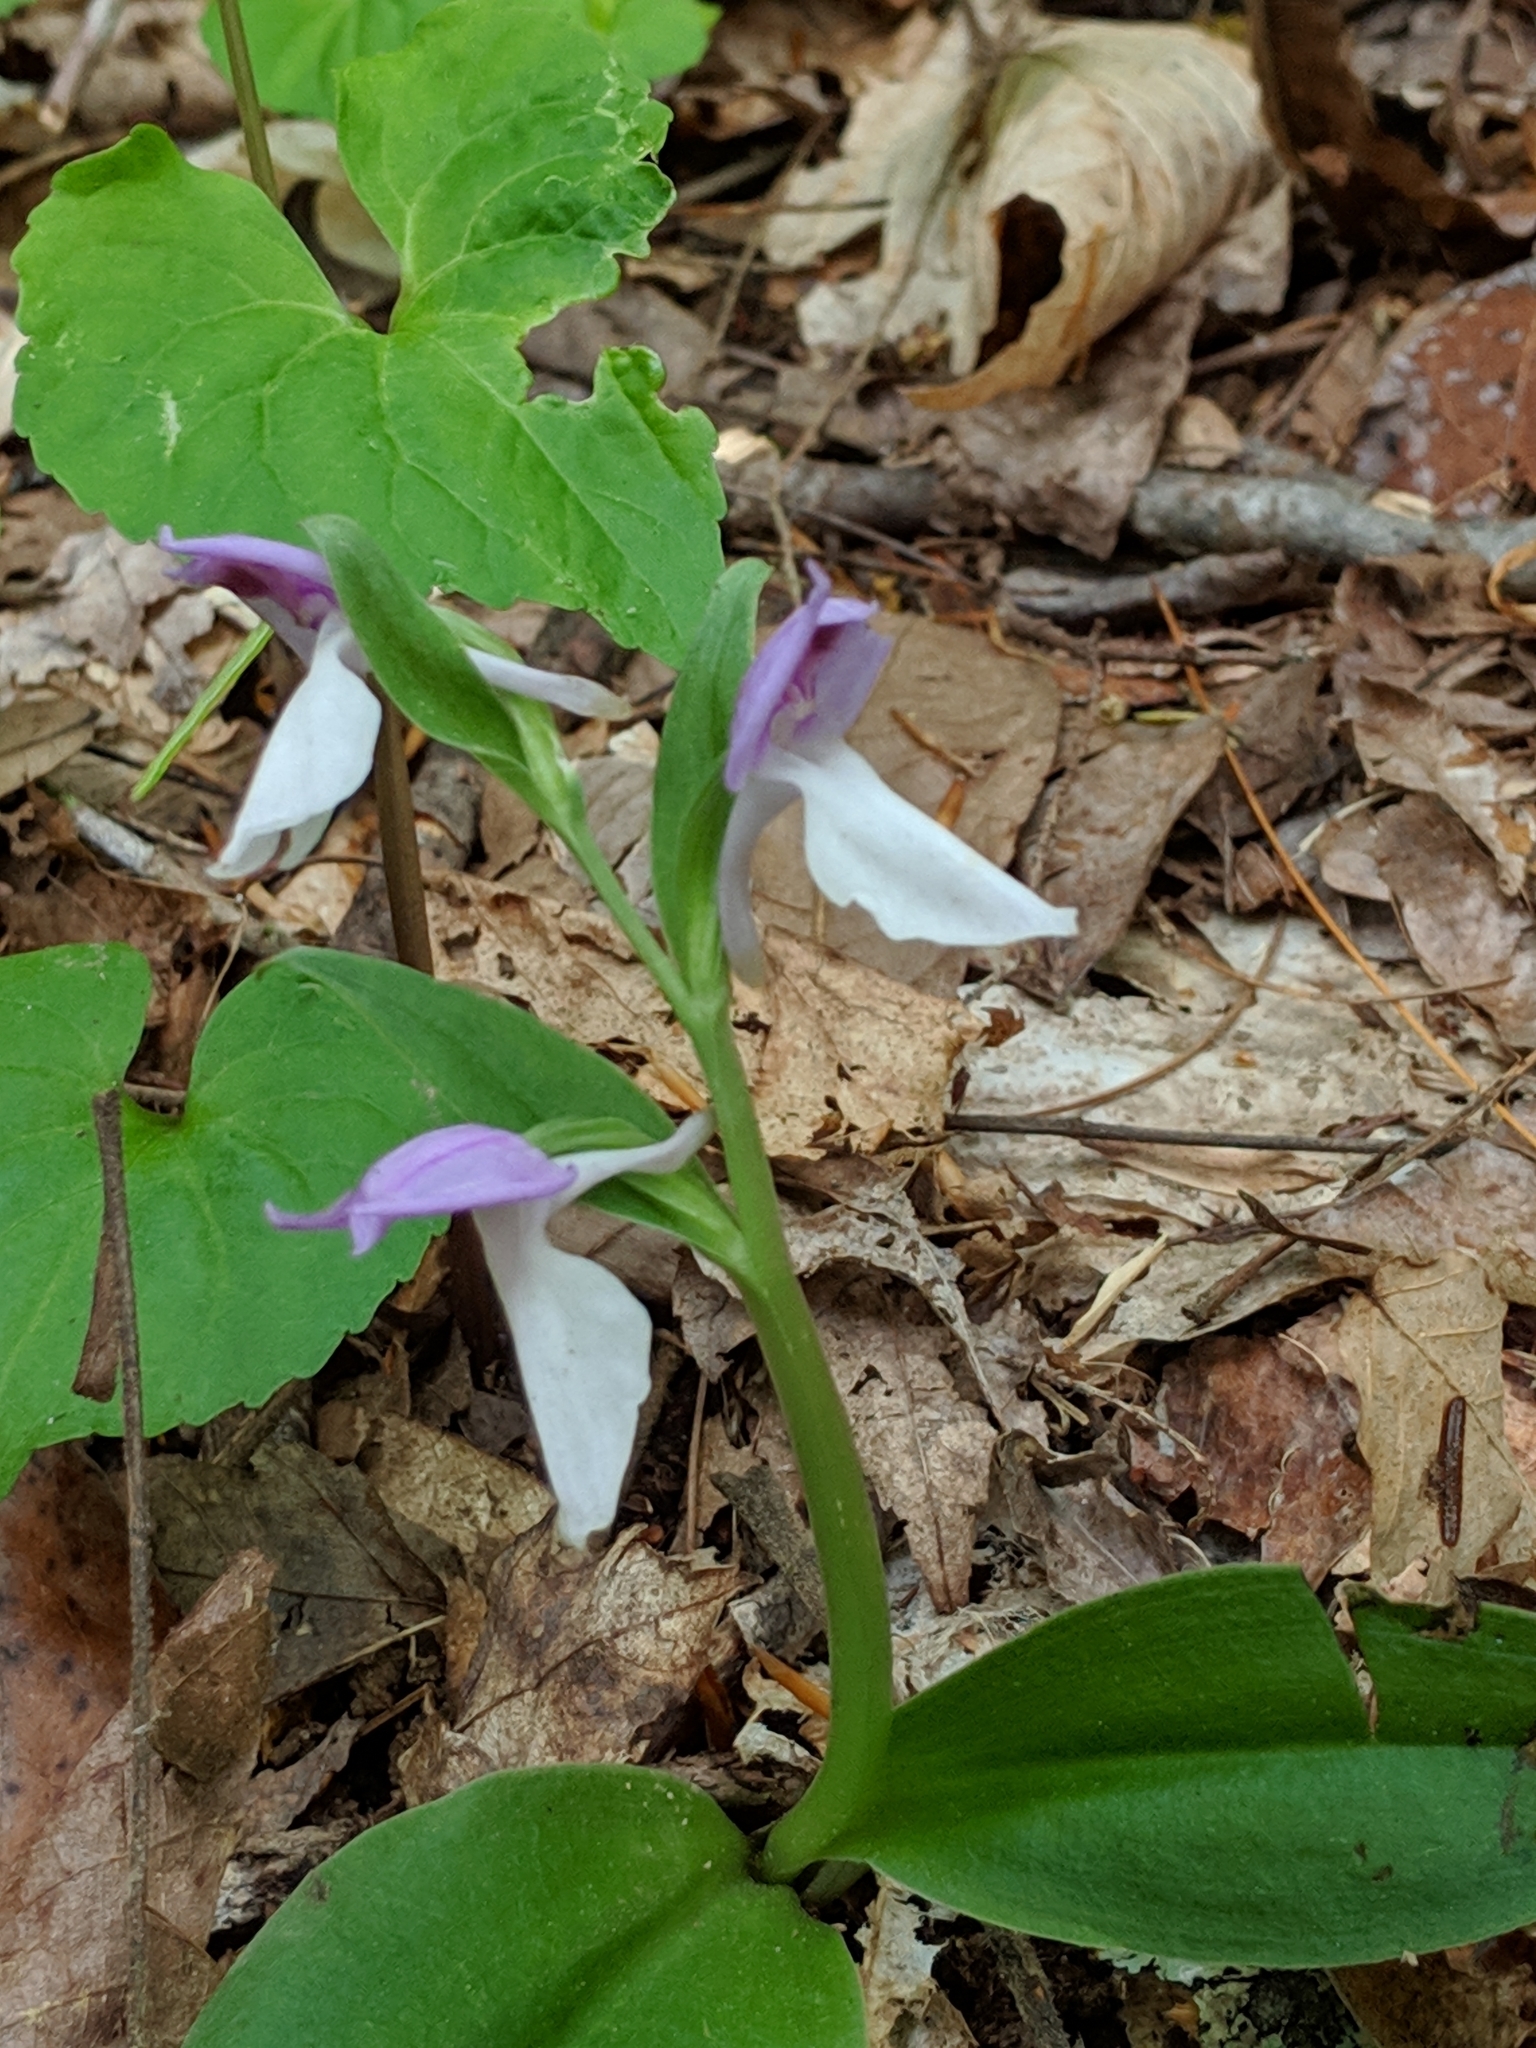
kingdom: Plantae
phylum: Tracheophyta
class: Liliopsida
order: Asparagales
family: Orchidaceae
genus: Galearis
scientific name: Galearis spectabilis
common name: Purple-hooded orchis
